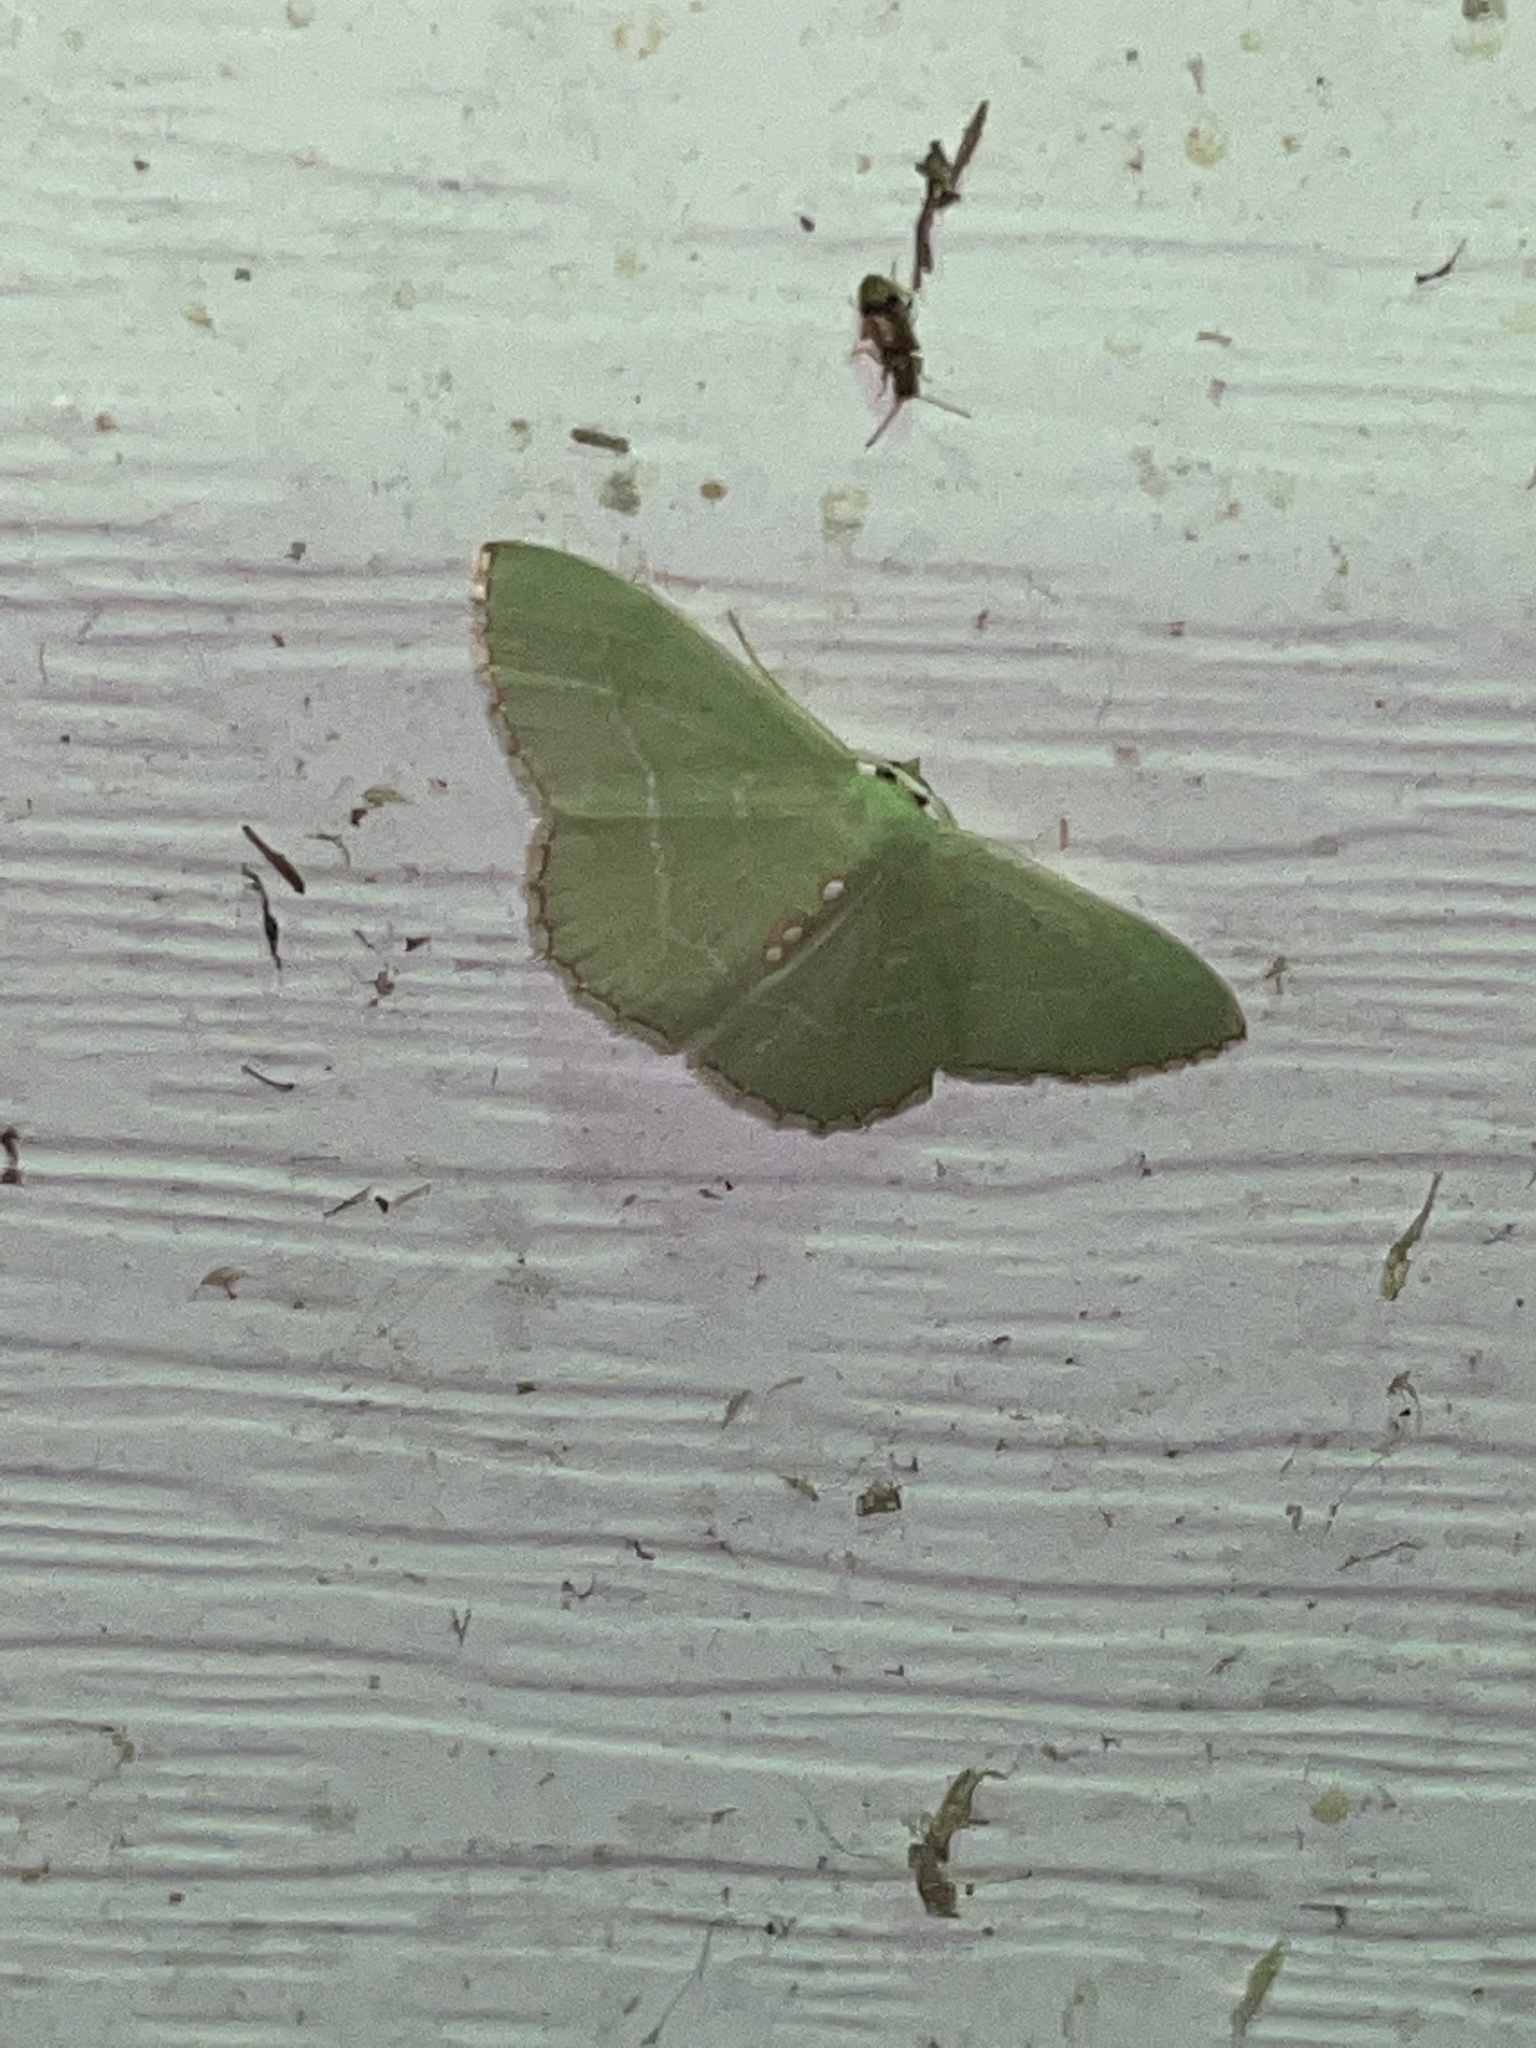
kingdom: Animalia
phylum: Arthropoda
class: Insecta
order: Lepidoptera
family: Geometridae
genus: Nemoria
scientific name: Nemoria lixaria
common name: Red-bordered emerald
